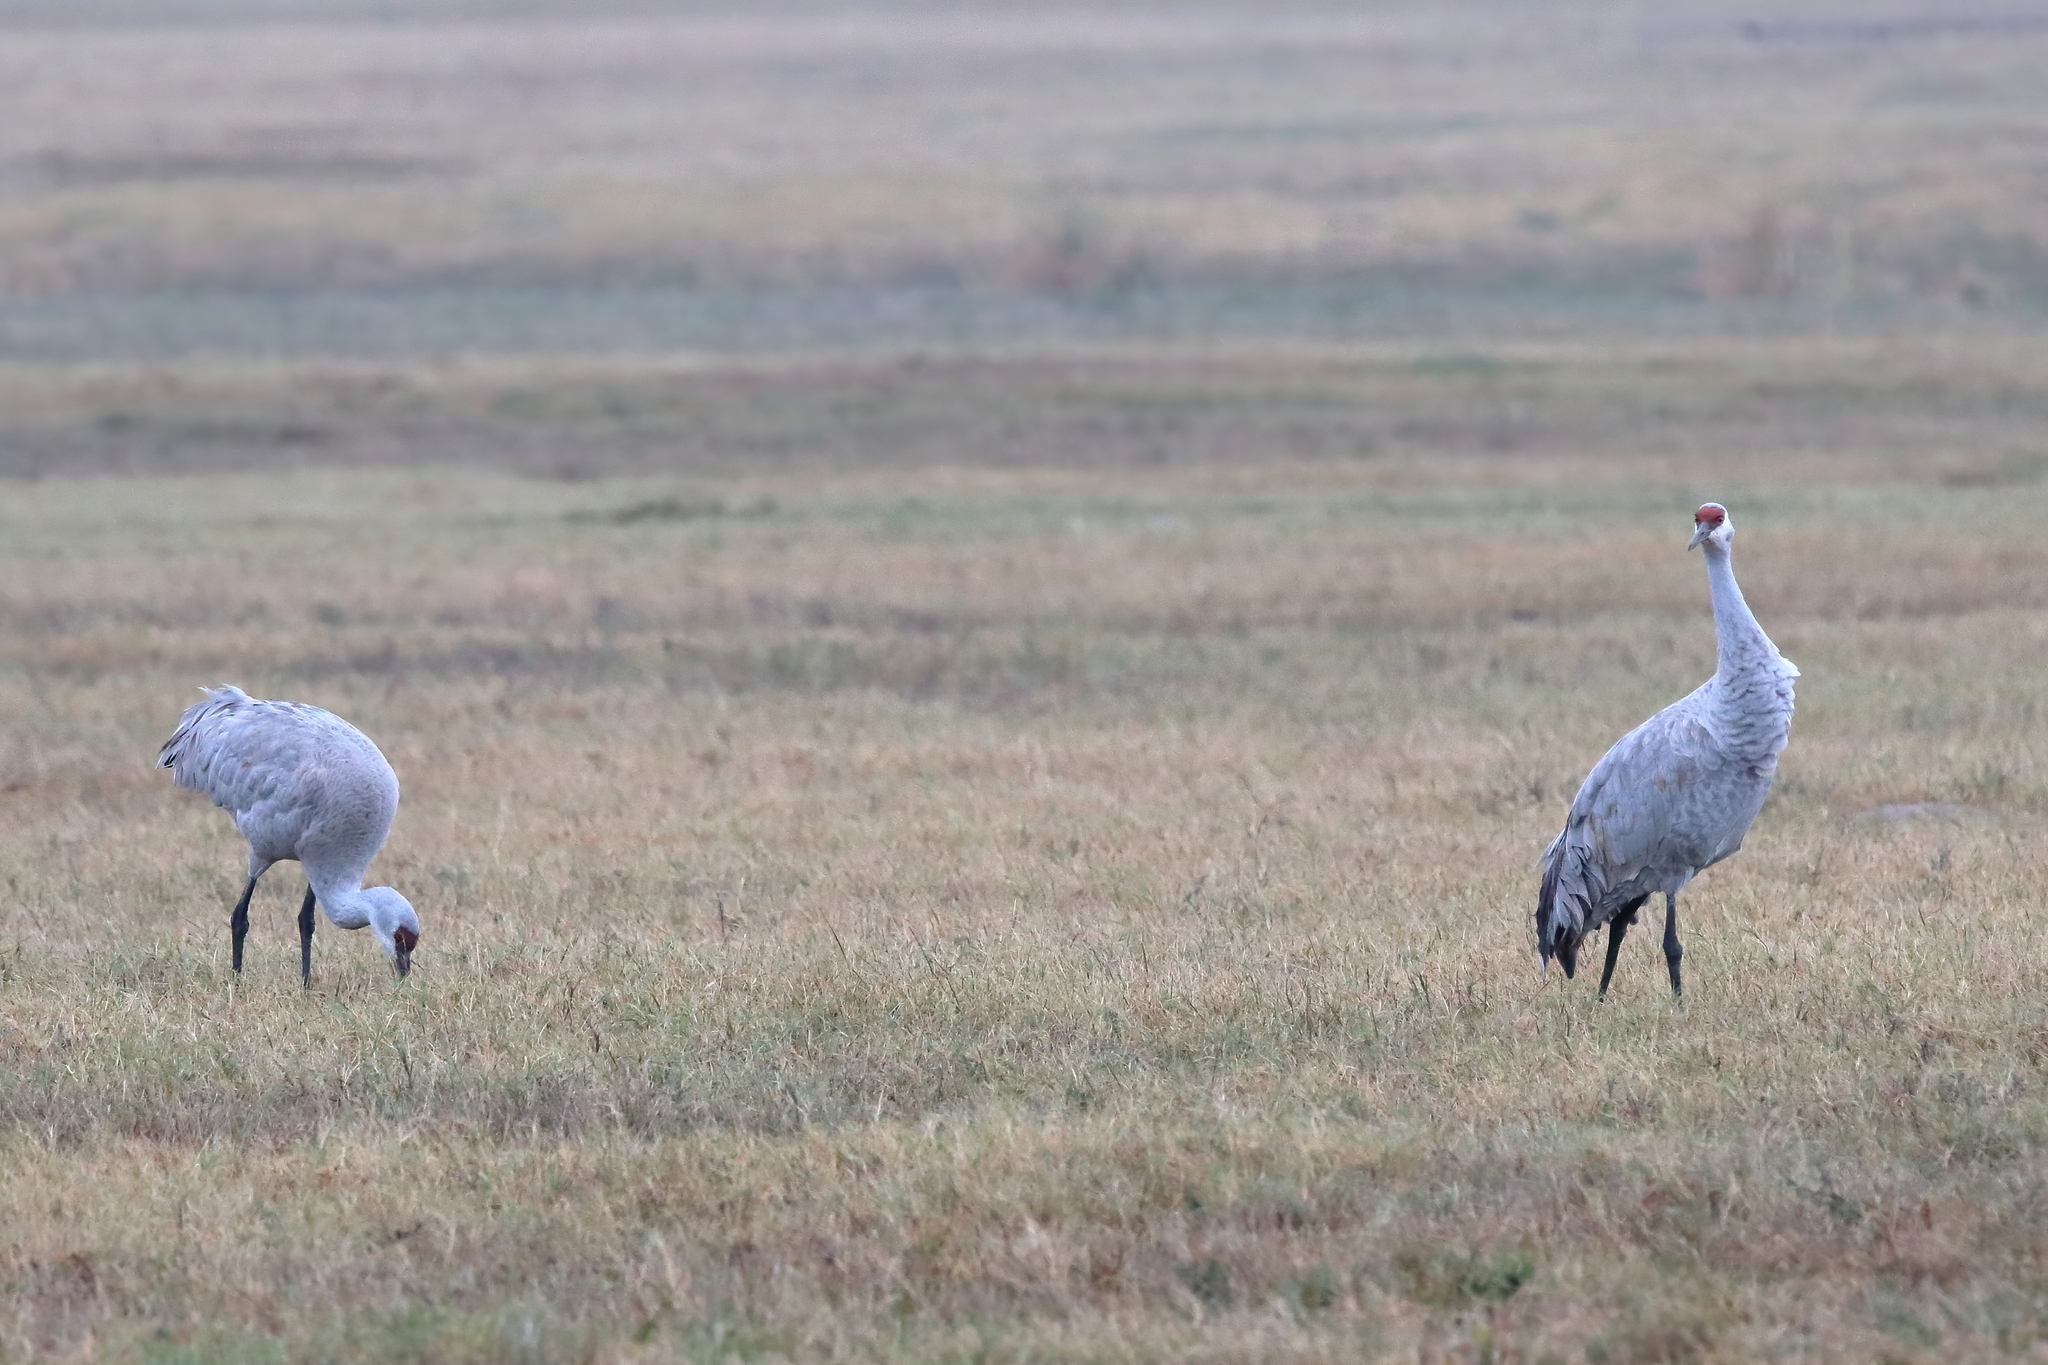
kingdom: Animalia
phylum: Chordata
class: Aves
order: Gruiformes
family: Gruidae
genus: Grus
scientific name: Grus canadensis
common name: Sandhill crane
